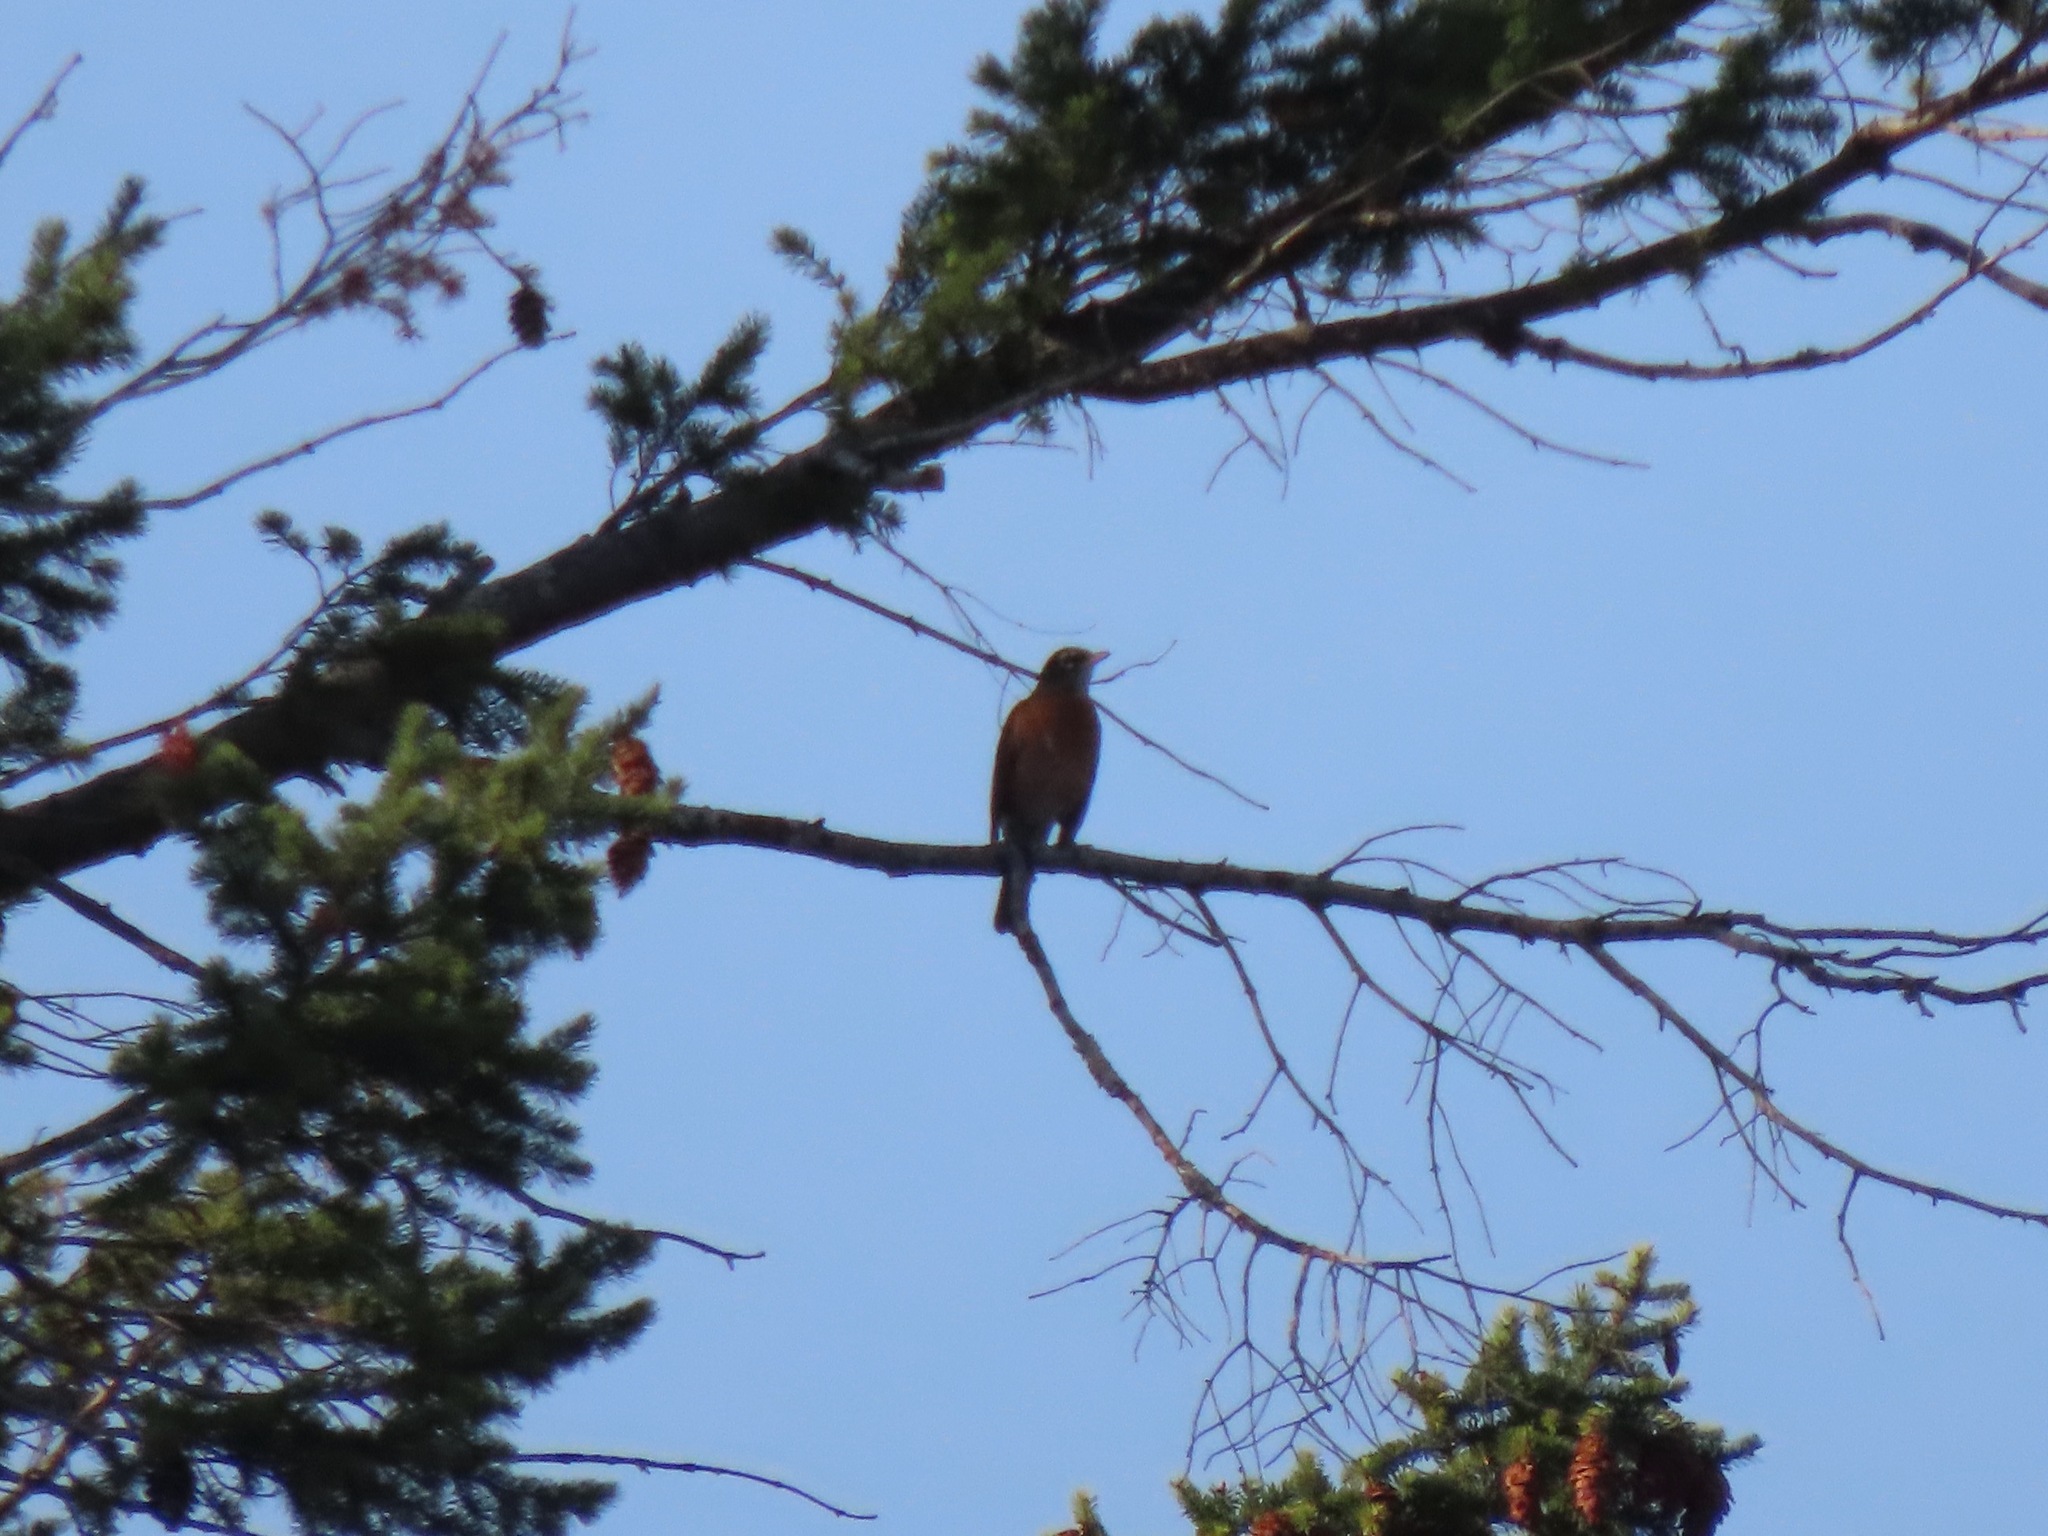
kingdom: Animalia
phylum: Chordata
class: Aves
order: Passeriformes
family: Turdidae
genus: Turdus
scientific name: Turdus migratorius
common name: American robin
